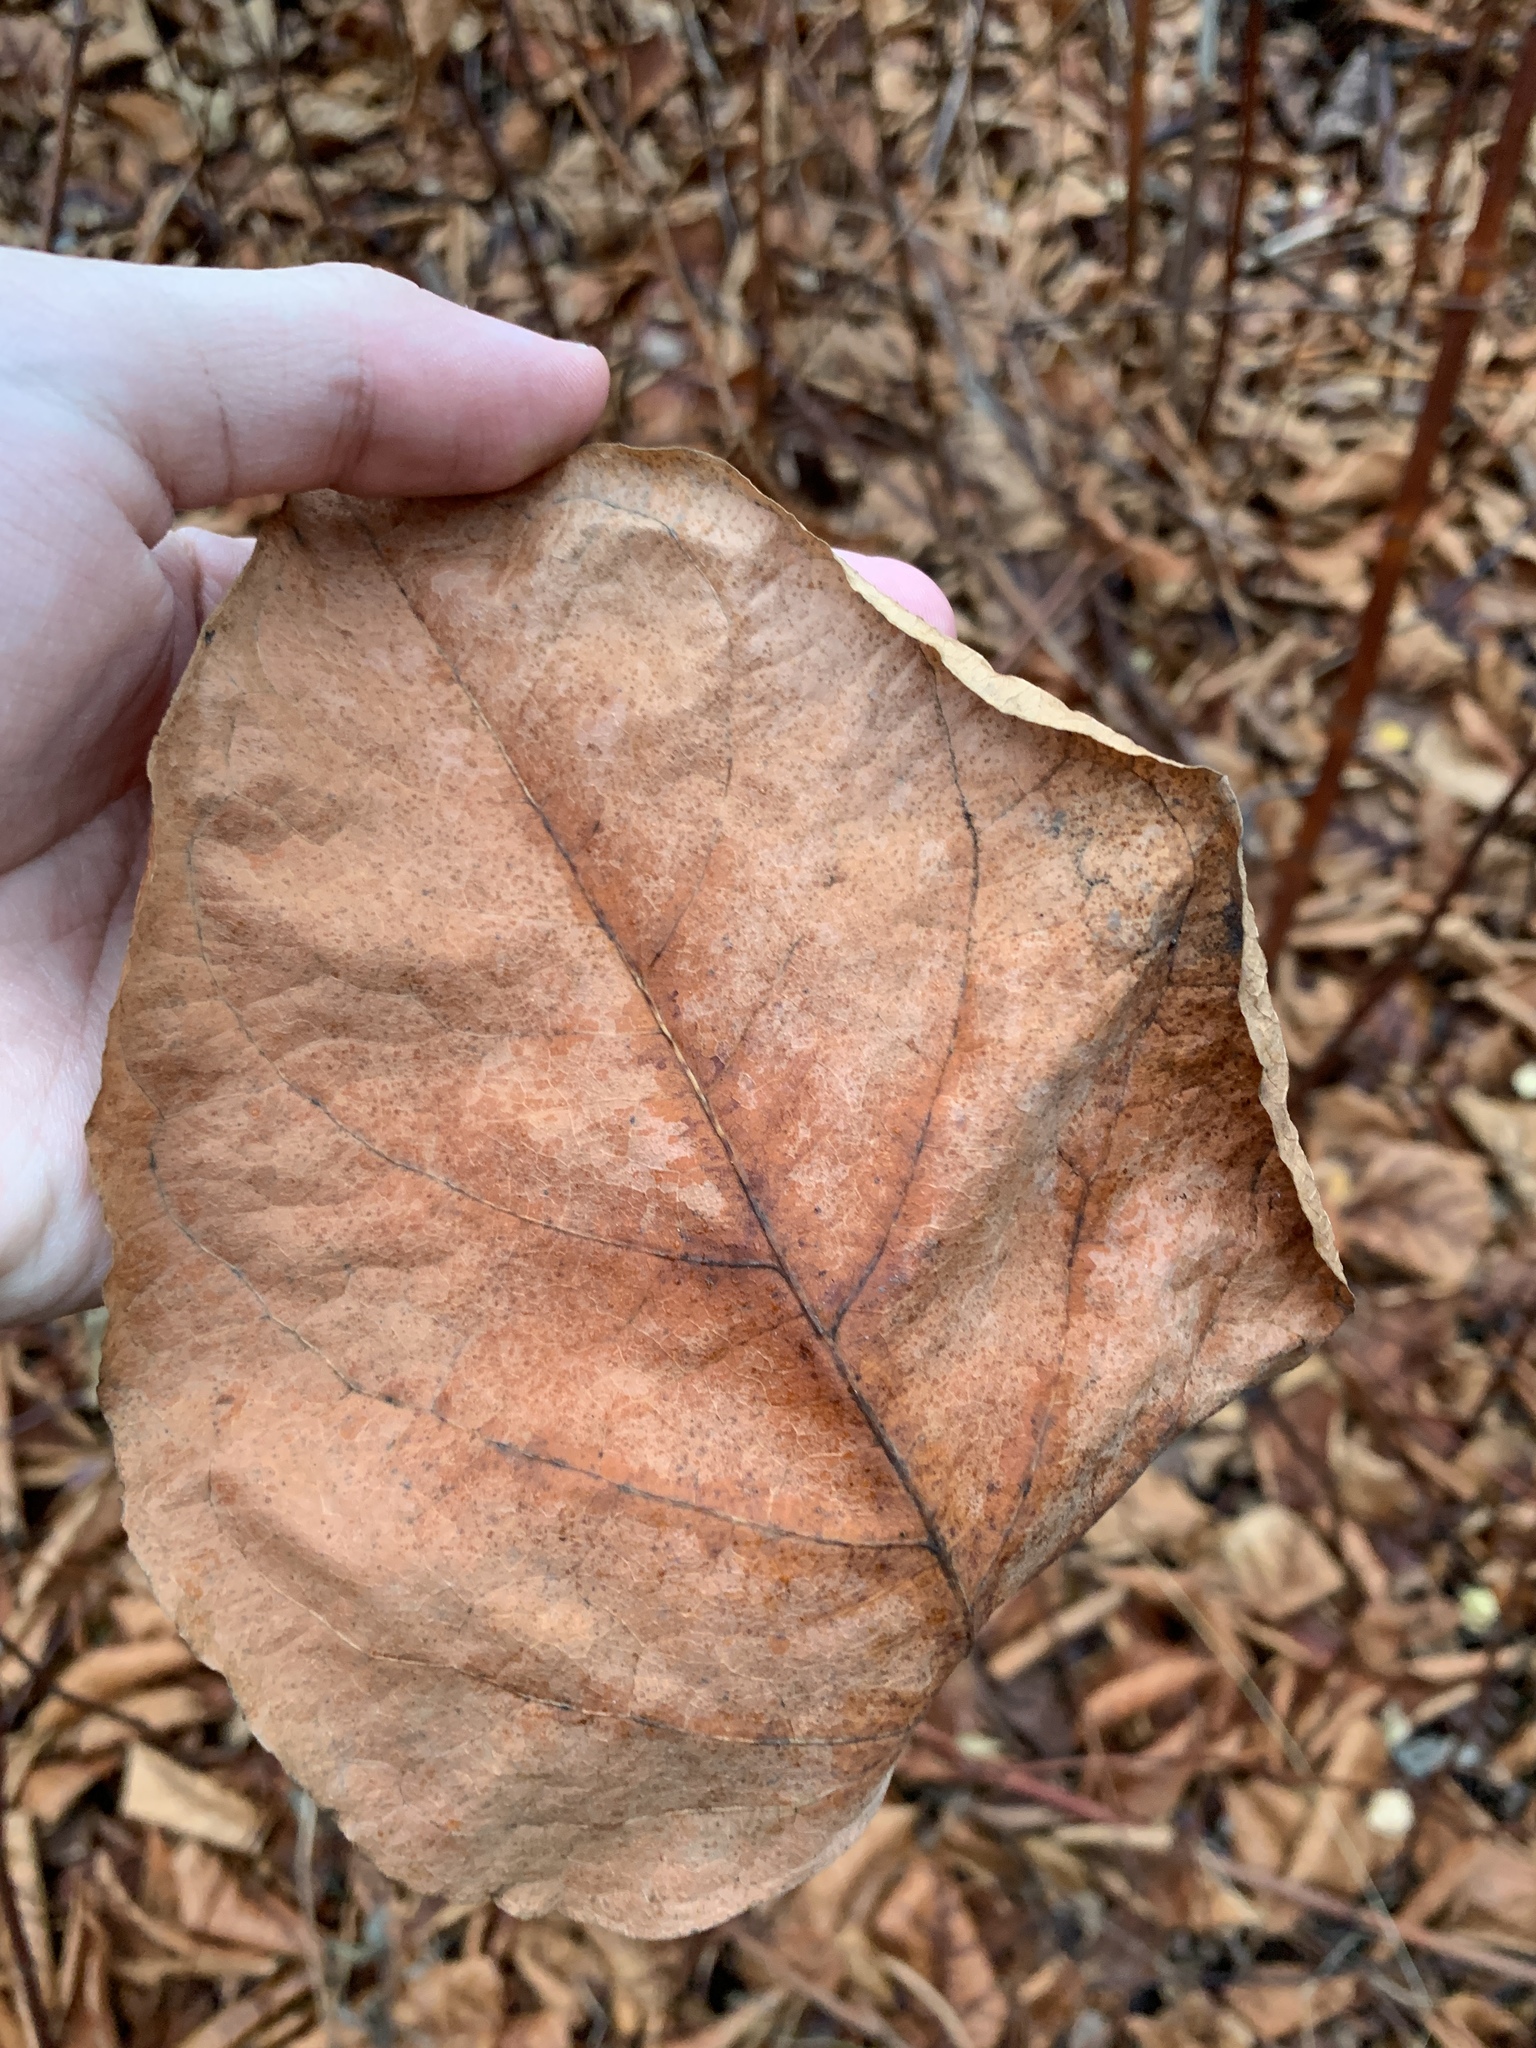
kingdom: Plantae
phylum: Tracheophyta
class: Magnoliopsida
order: Caryophyllales
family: Polygonaceae
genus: Reynoutria
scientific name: Reynoutria bohemica
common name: Bohemian knotweed
